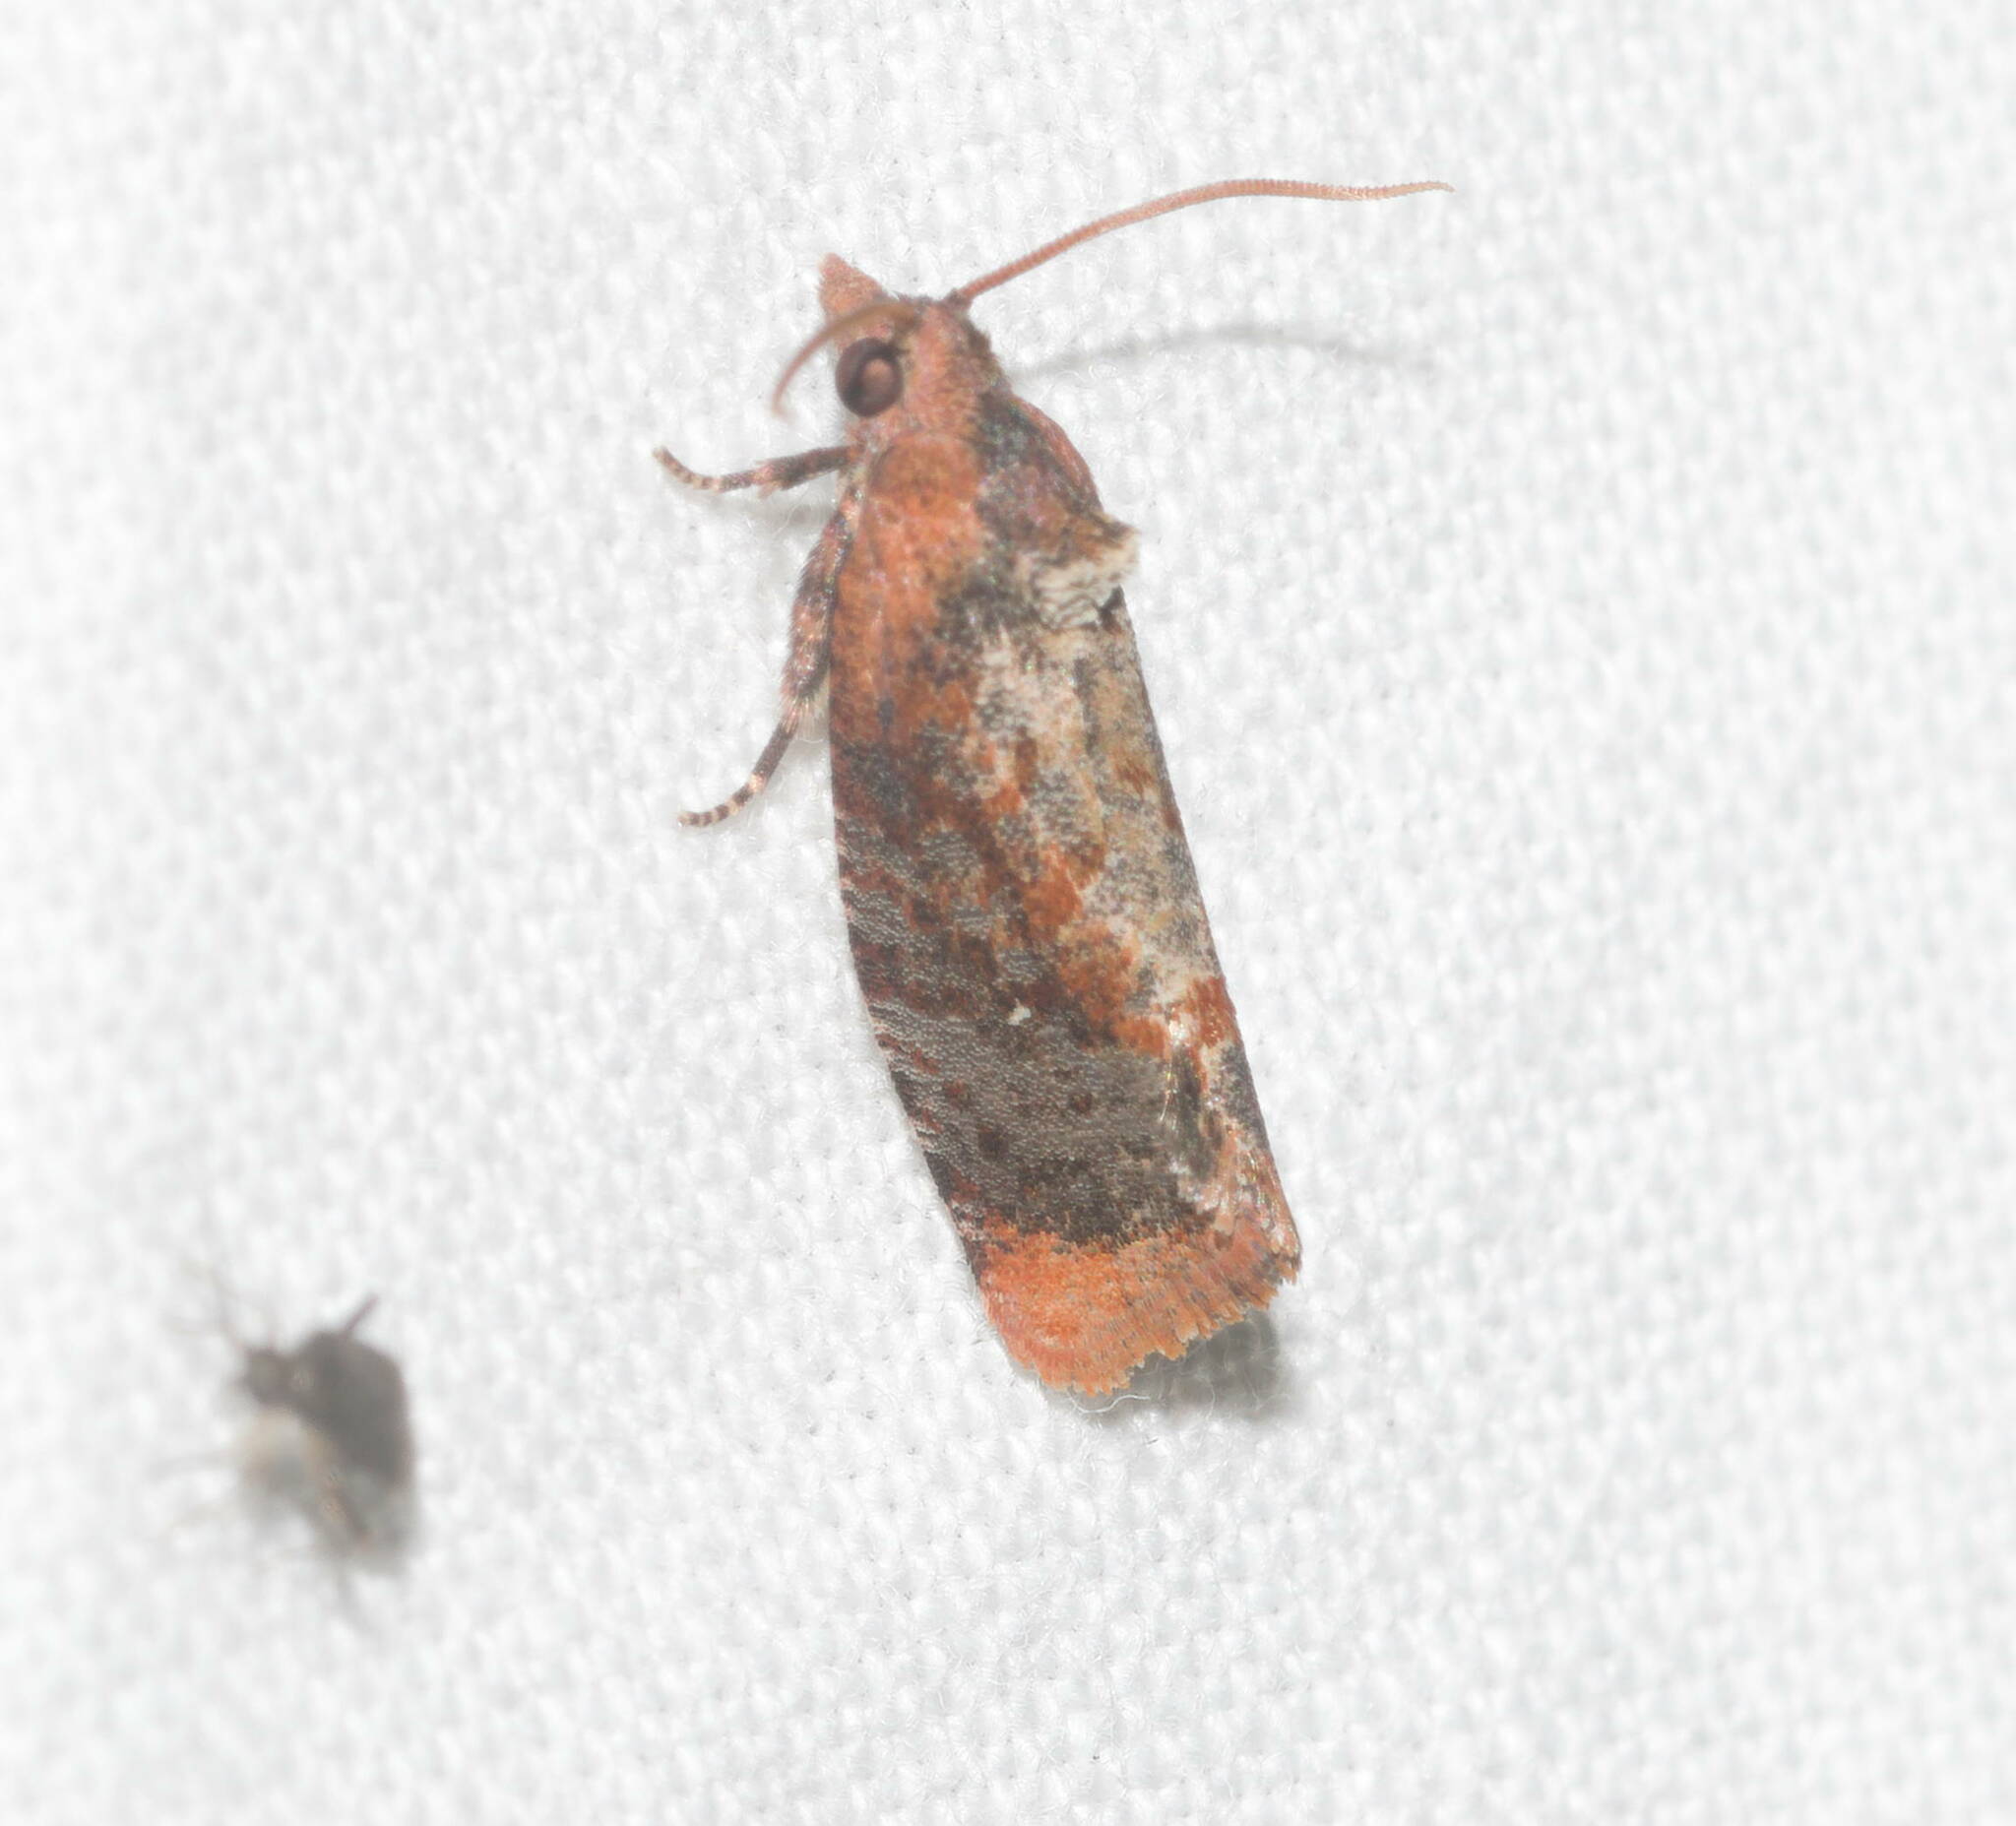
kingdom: Animalia
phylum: Arthropoda
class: Insecta
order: Lepidoptera
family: Tortricidae
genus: Cryptophlebia
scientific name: Cryptophlebia illepida
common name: Moth
